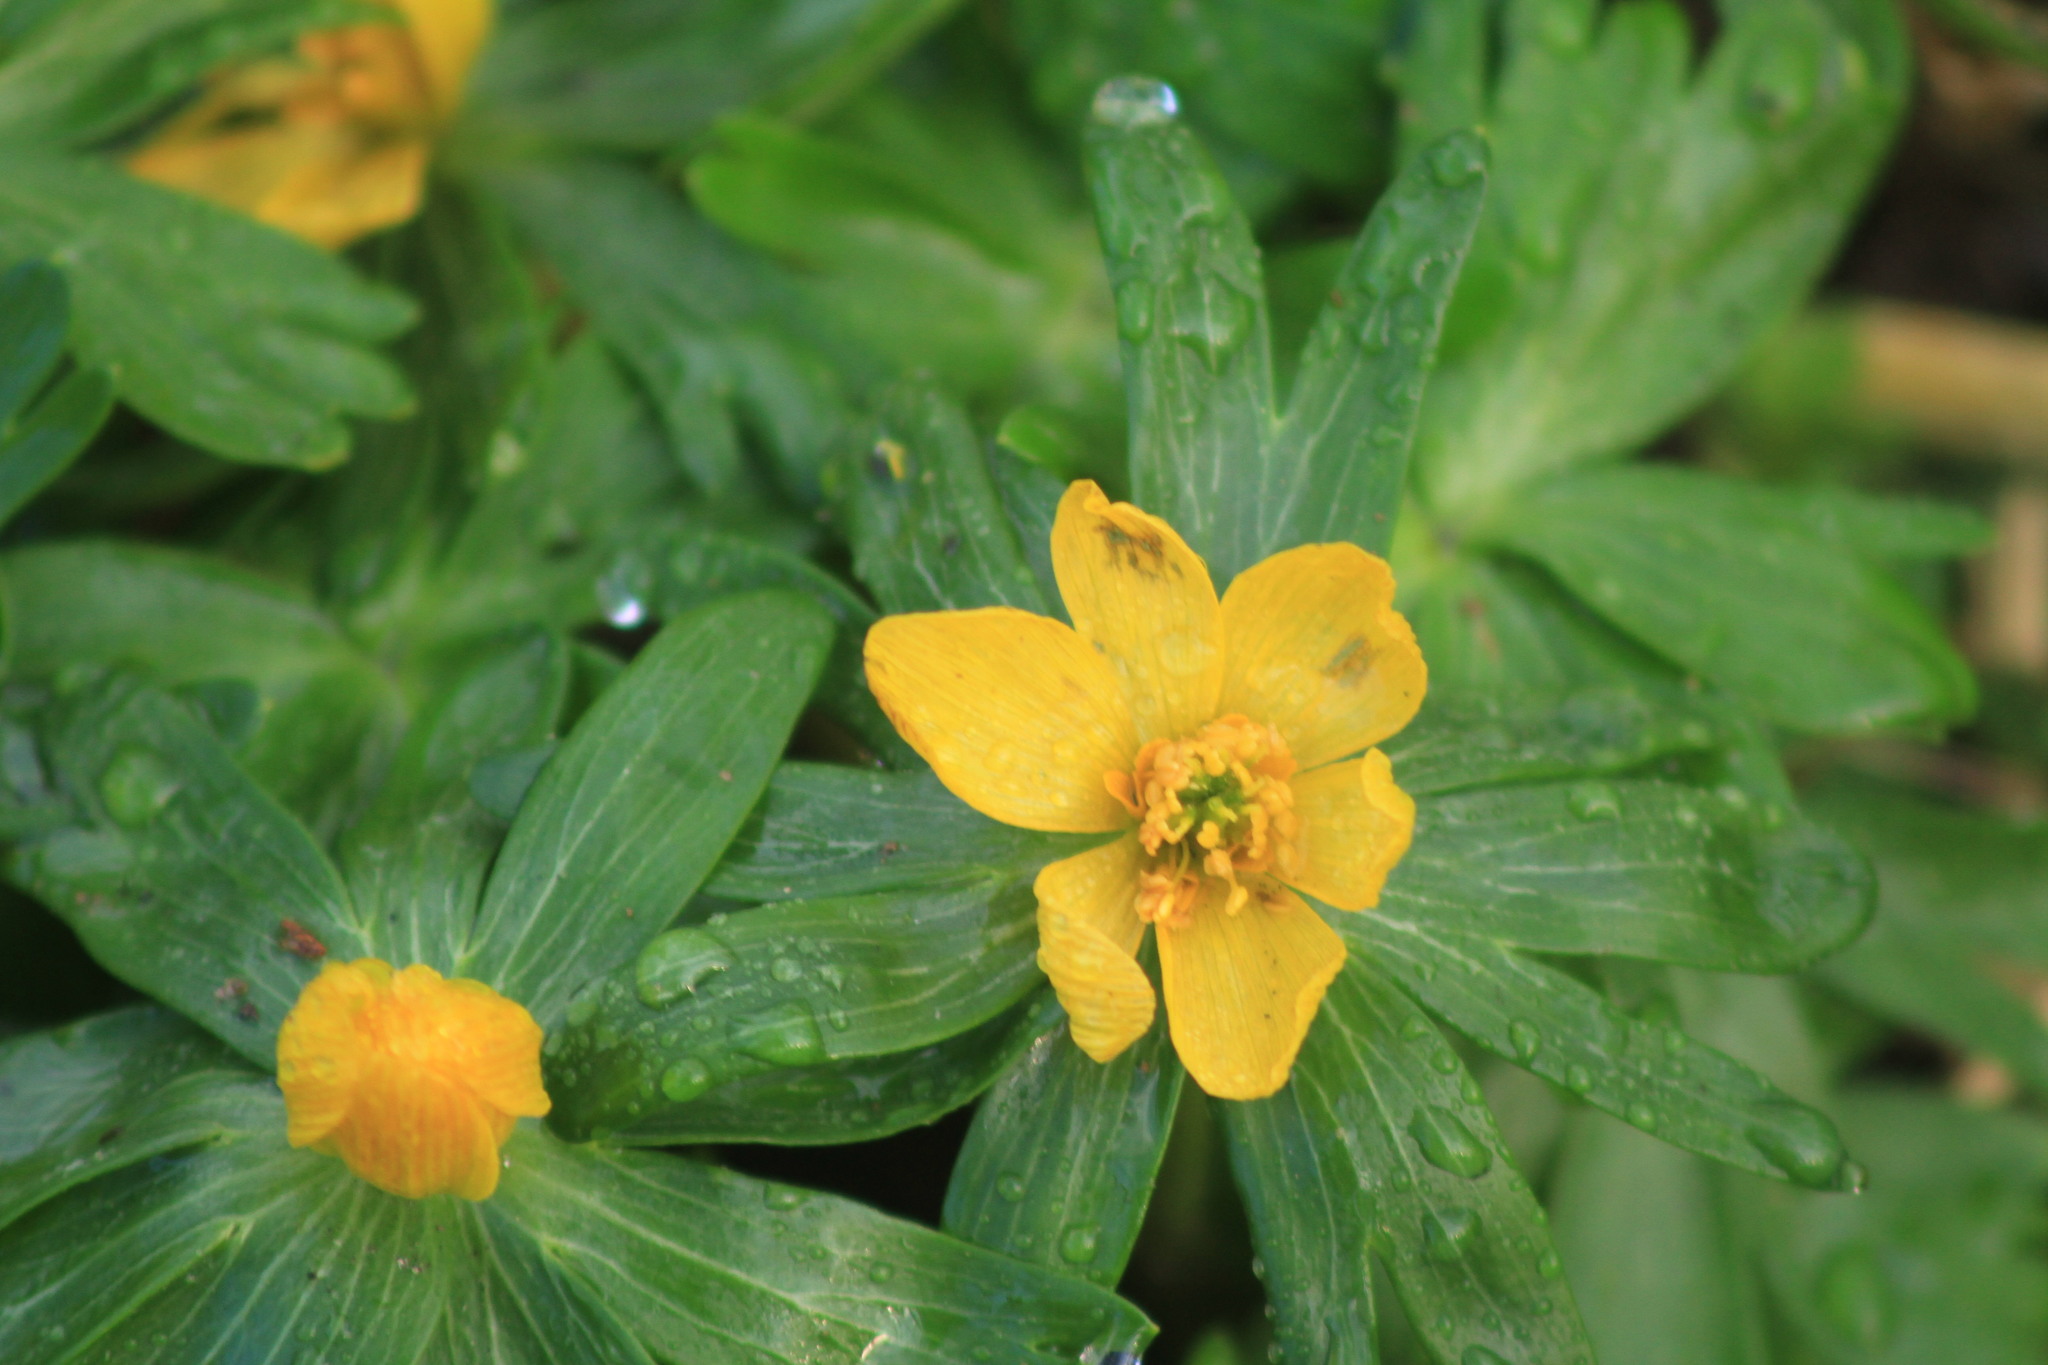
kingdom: Plantae
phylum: Tracheophyta
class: Magnoliopsida
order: Ranunculales
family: Ranunculaceae
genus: Eranthis
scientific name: Eranthis hyemalis
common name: Winter aconite
